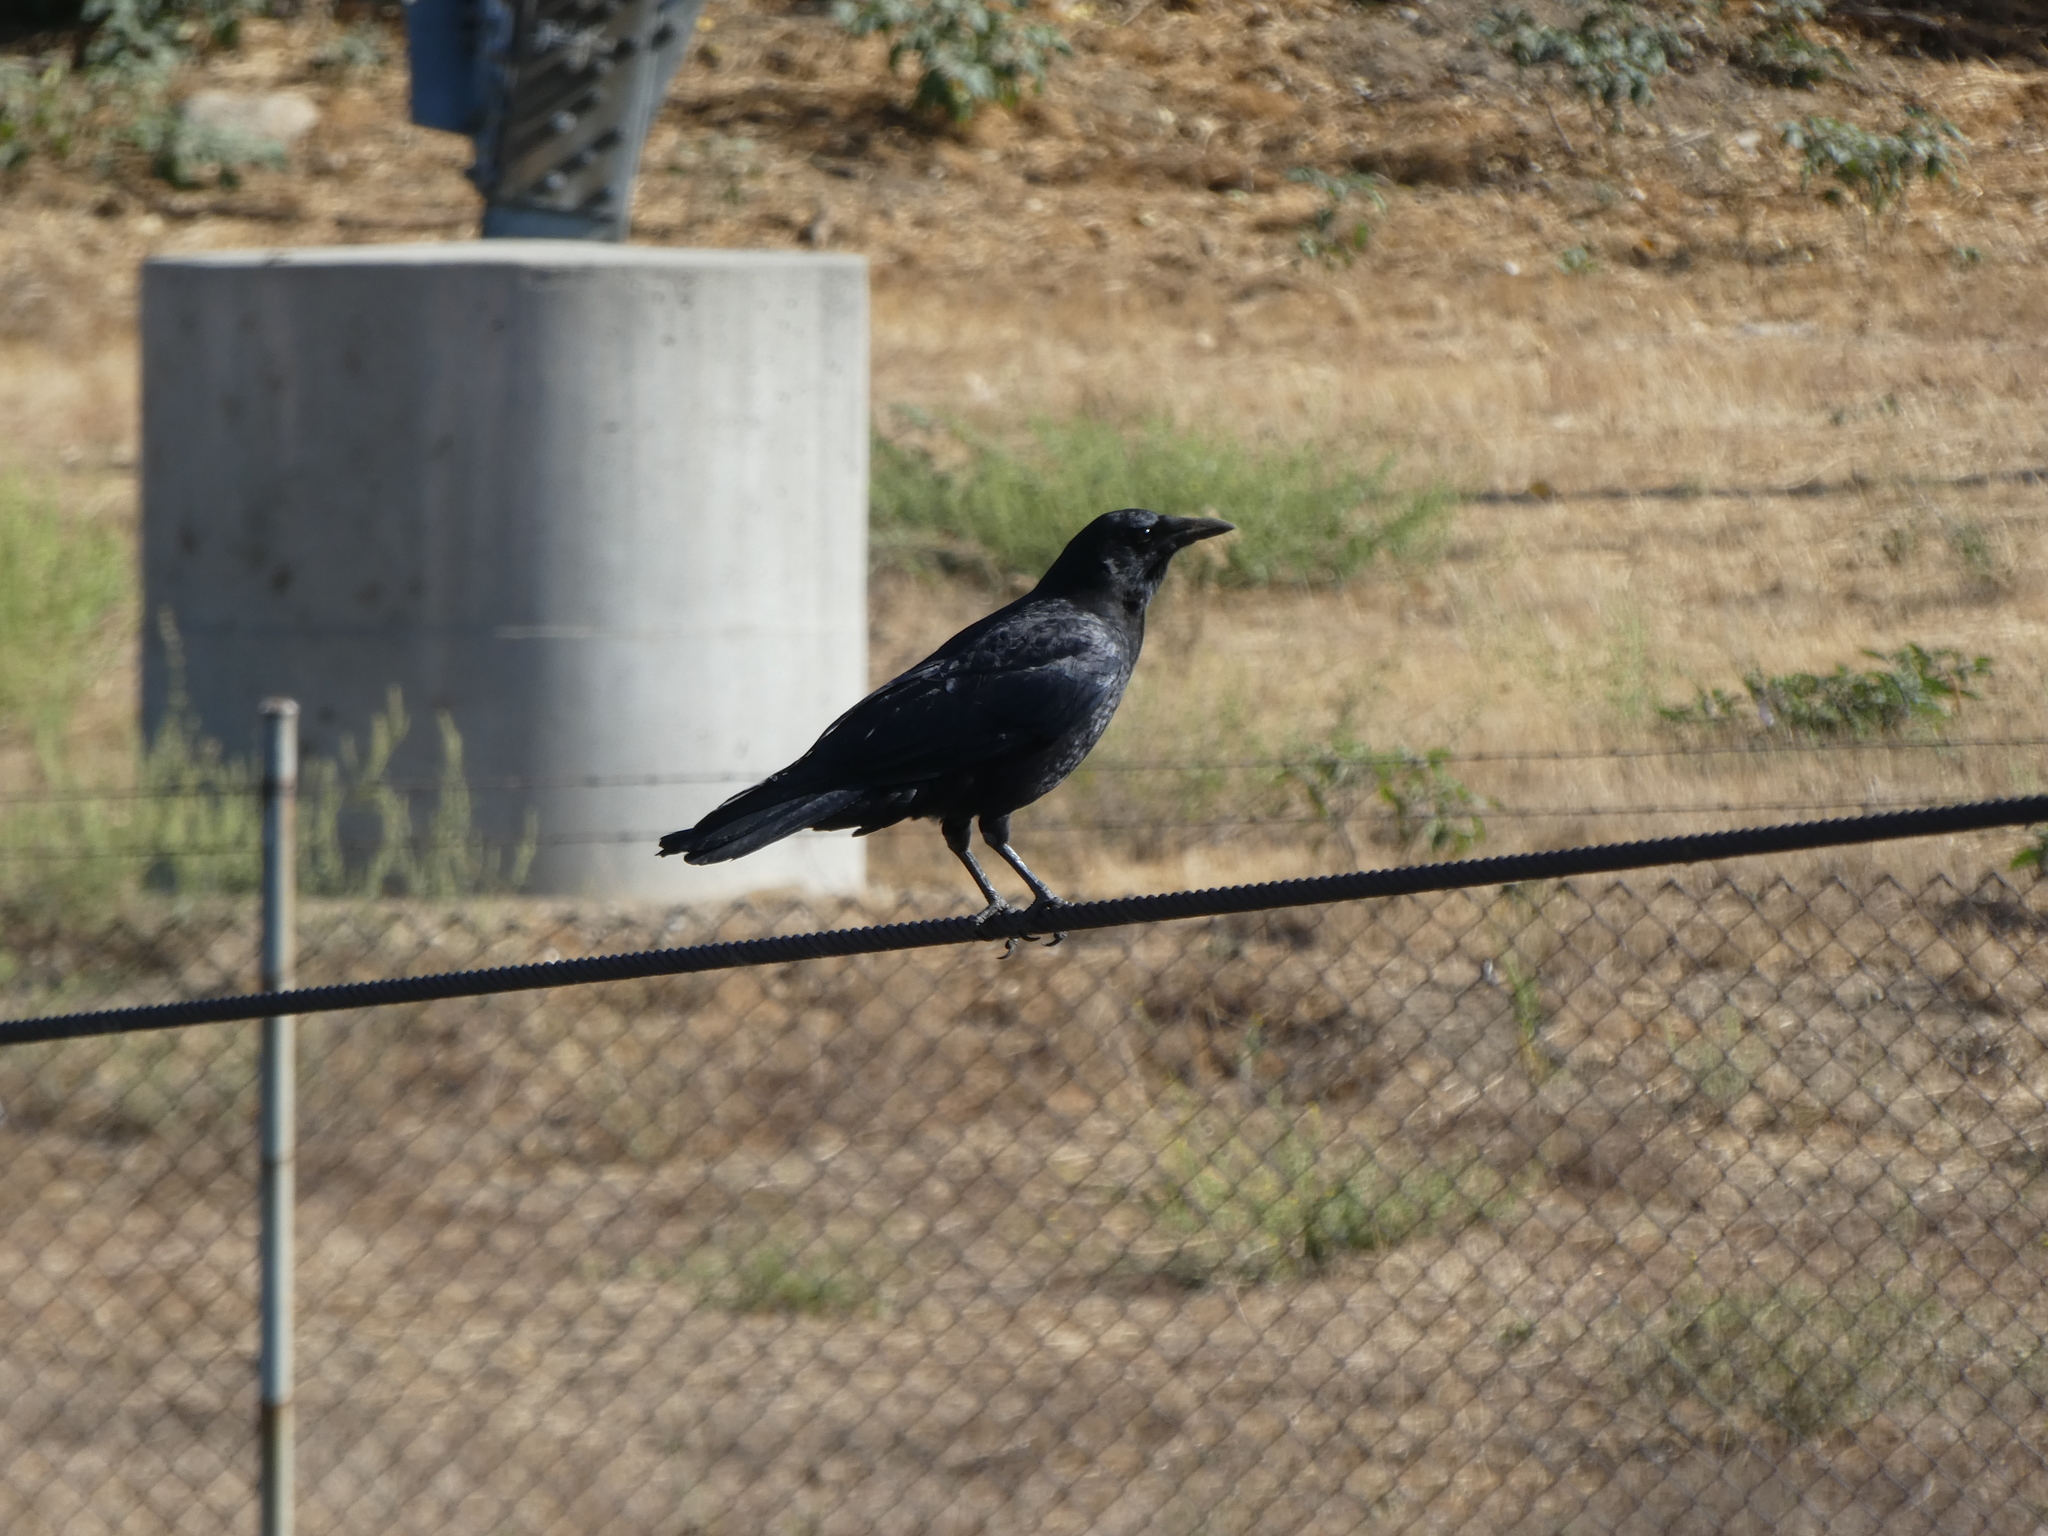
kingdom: Animalia
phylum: Chordata
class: Aves
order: Passeriformes
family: Corvidae
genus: Corvus
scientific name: Corvus brachyrhynchos
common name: American crow
